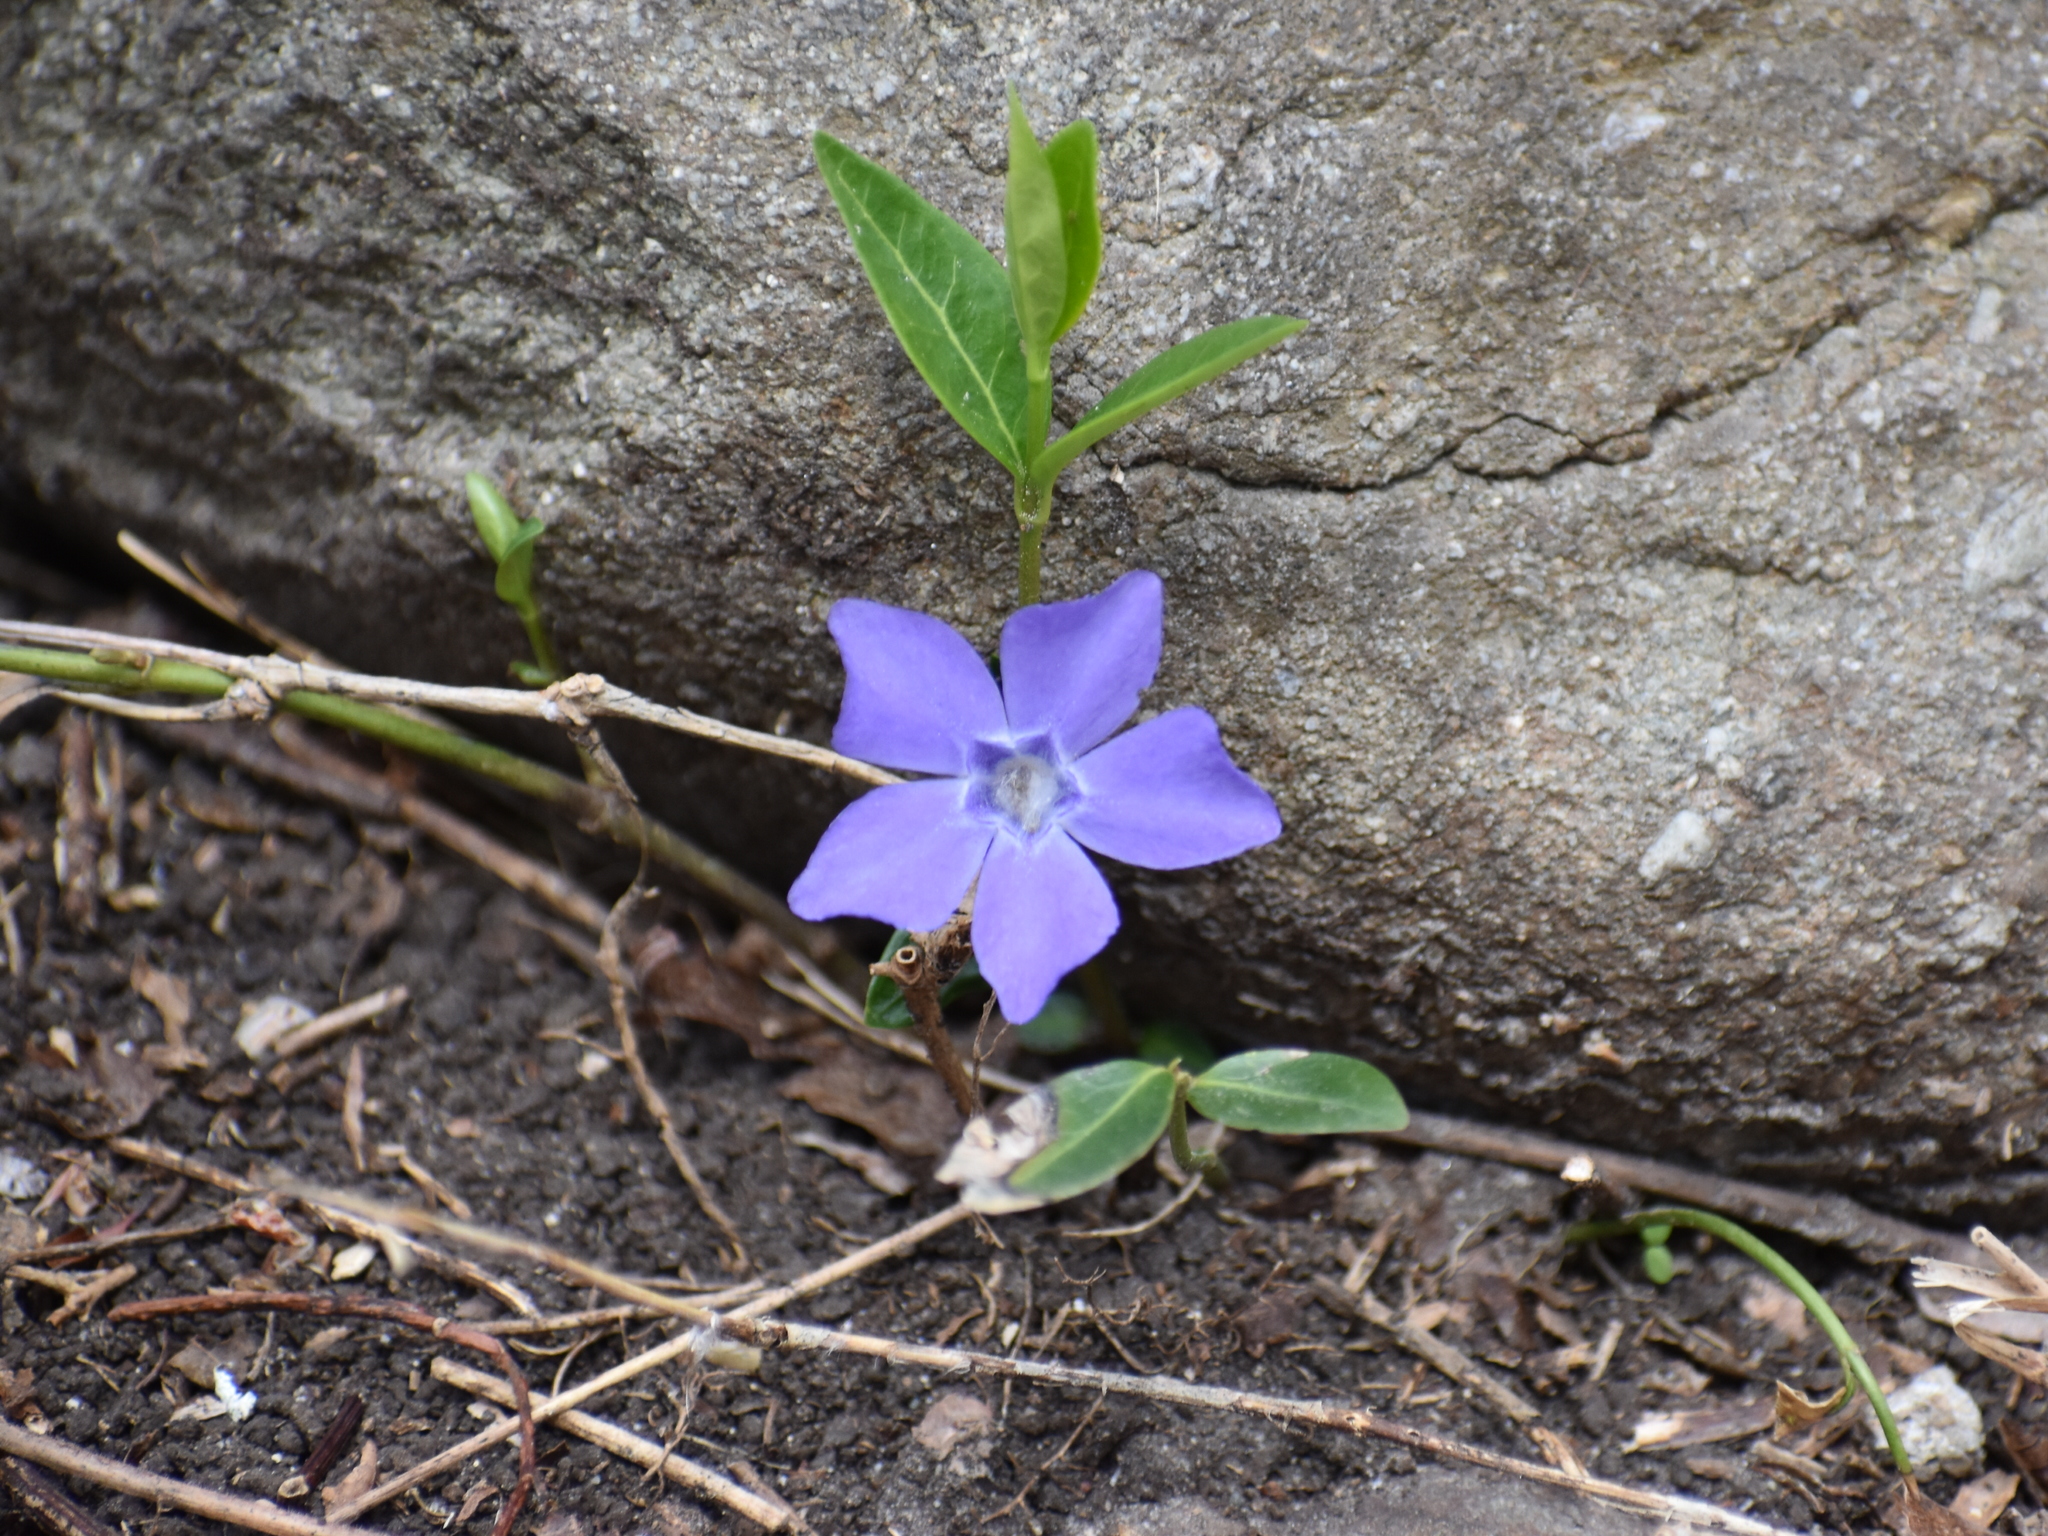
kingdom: Plantae
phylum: Tracheophyta
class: Magnoliopsida
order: Gentianales
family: Apocynaceae
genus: Vinca
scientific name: Vinca minor
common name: Lesser periwinkle
